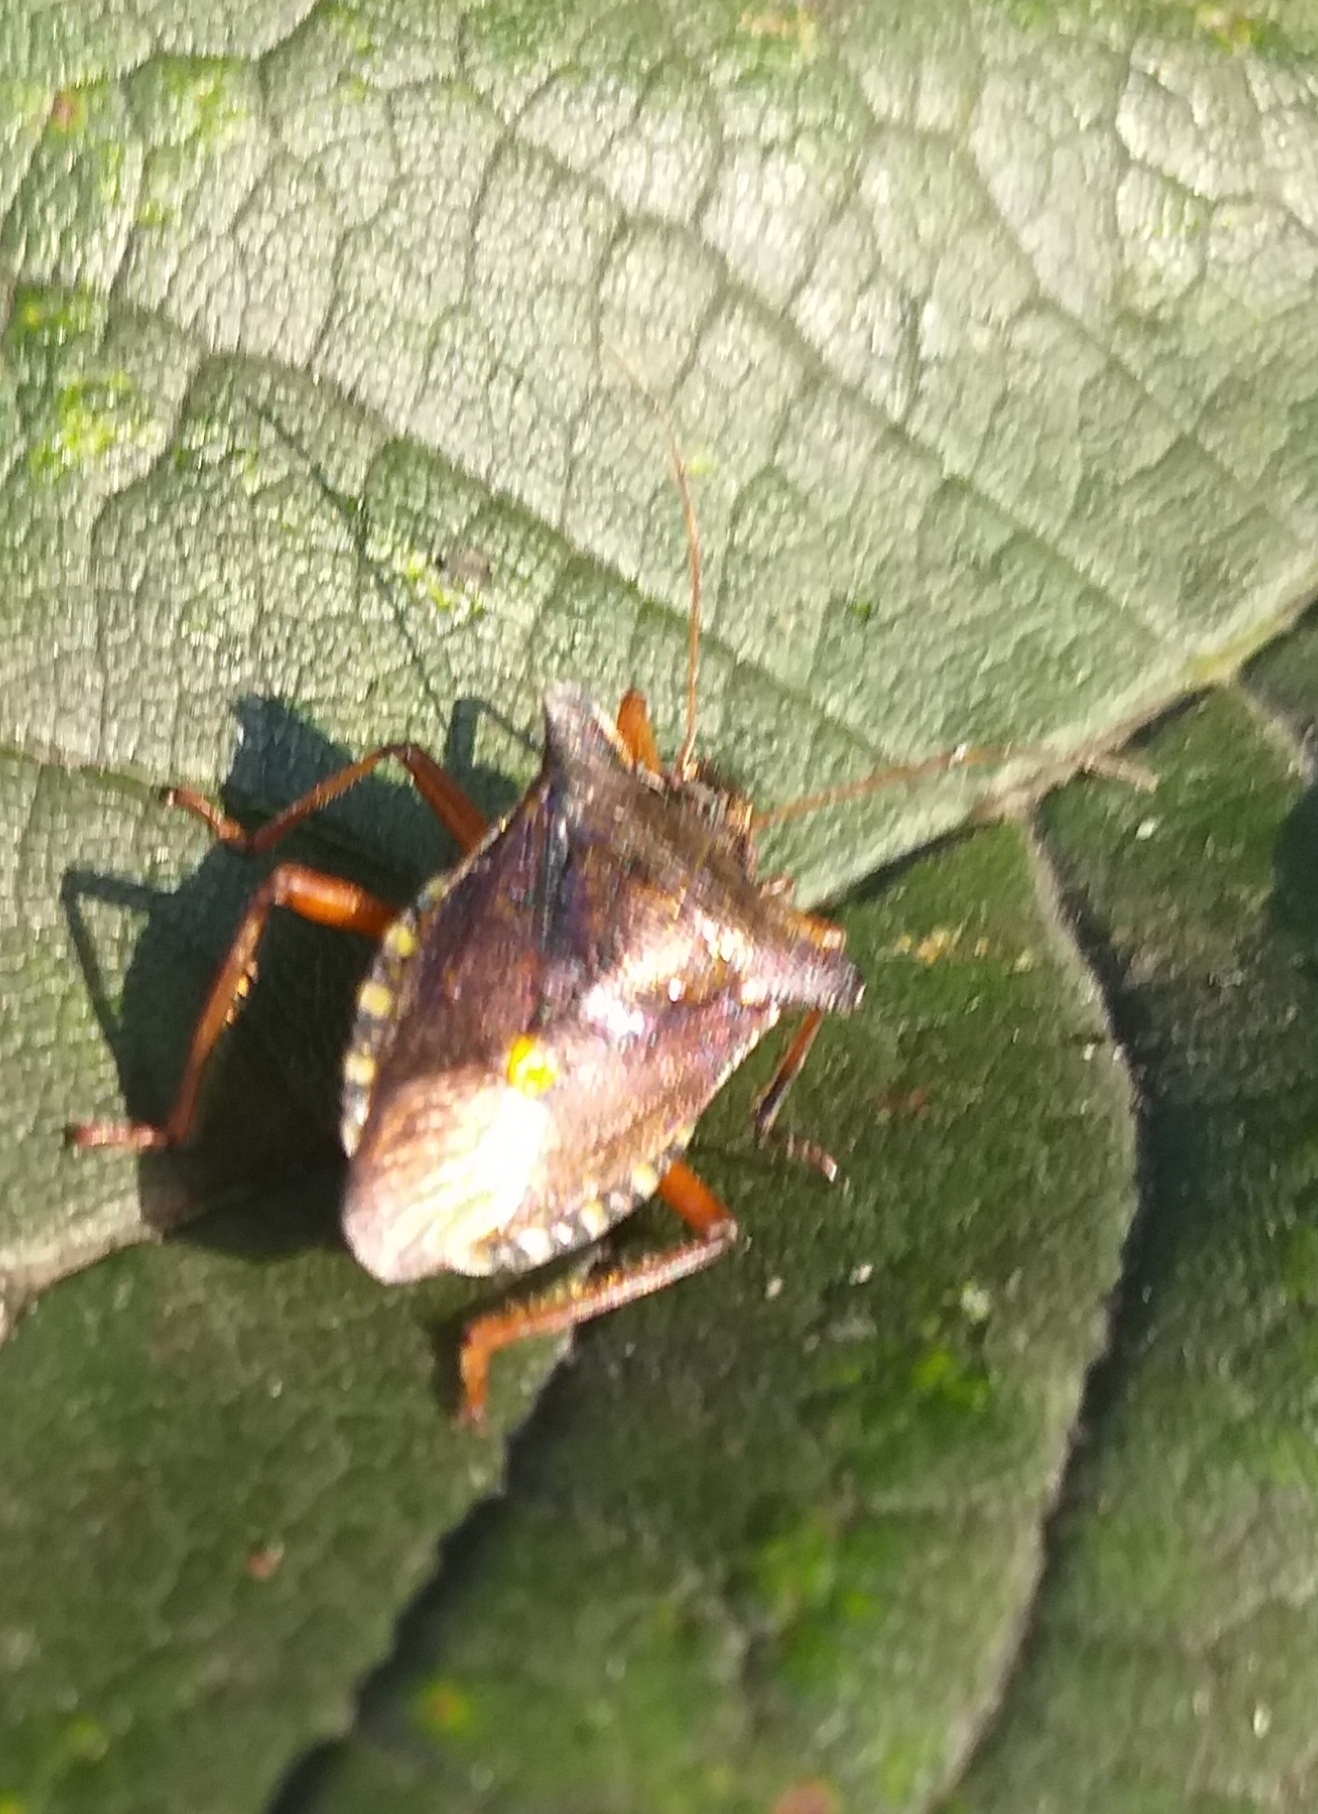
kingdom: Animalia
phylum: Arthropoda
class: Insecta
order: Hemiptera
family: Pentatomidae
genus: Pentatoma
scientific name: Pentatoma rufipes
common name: Forest bug
